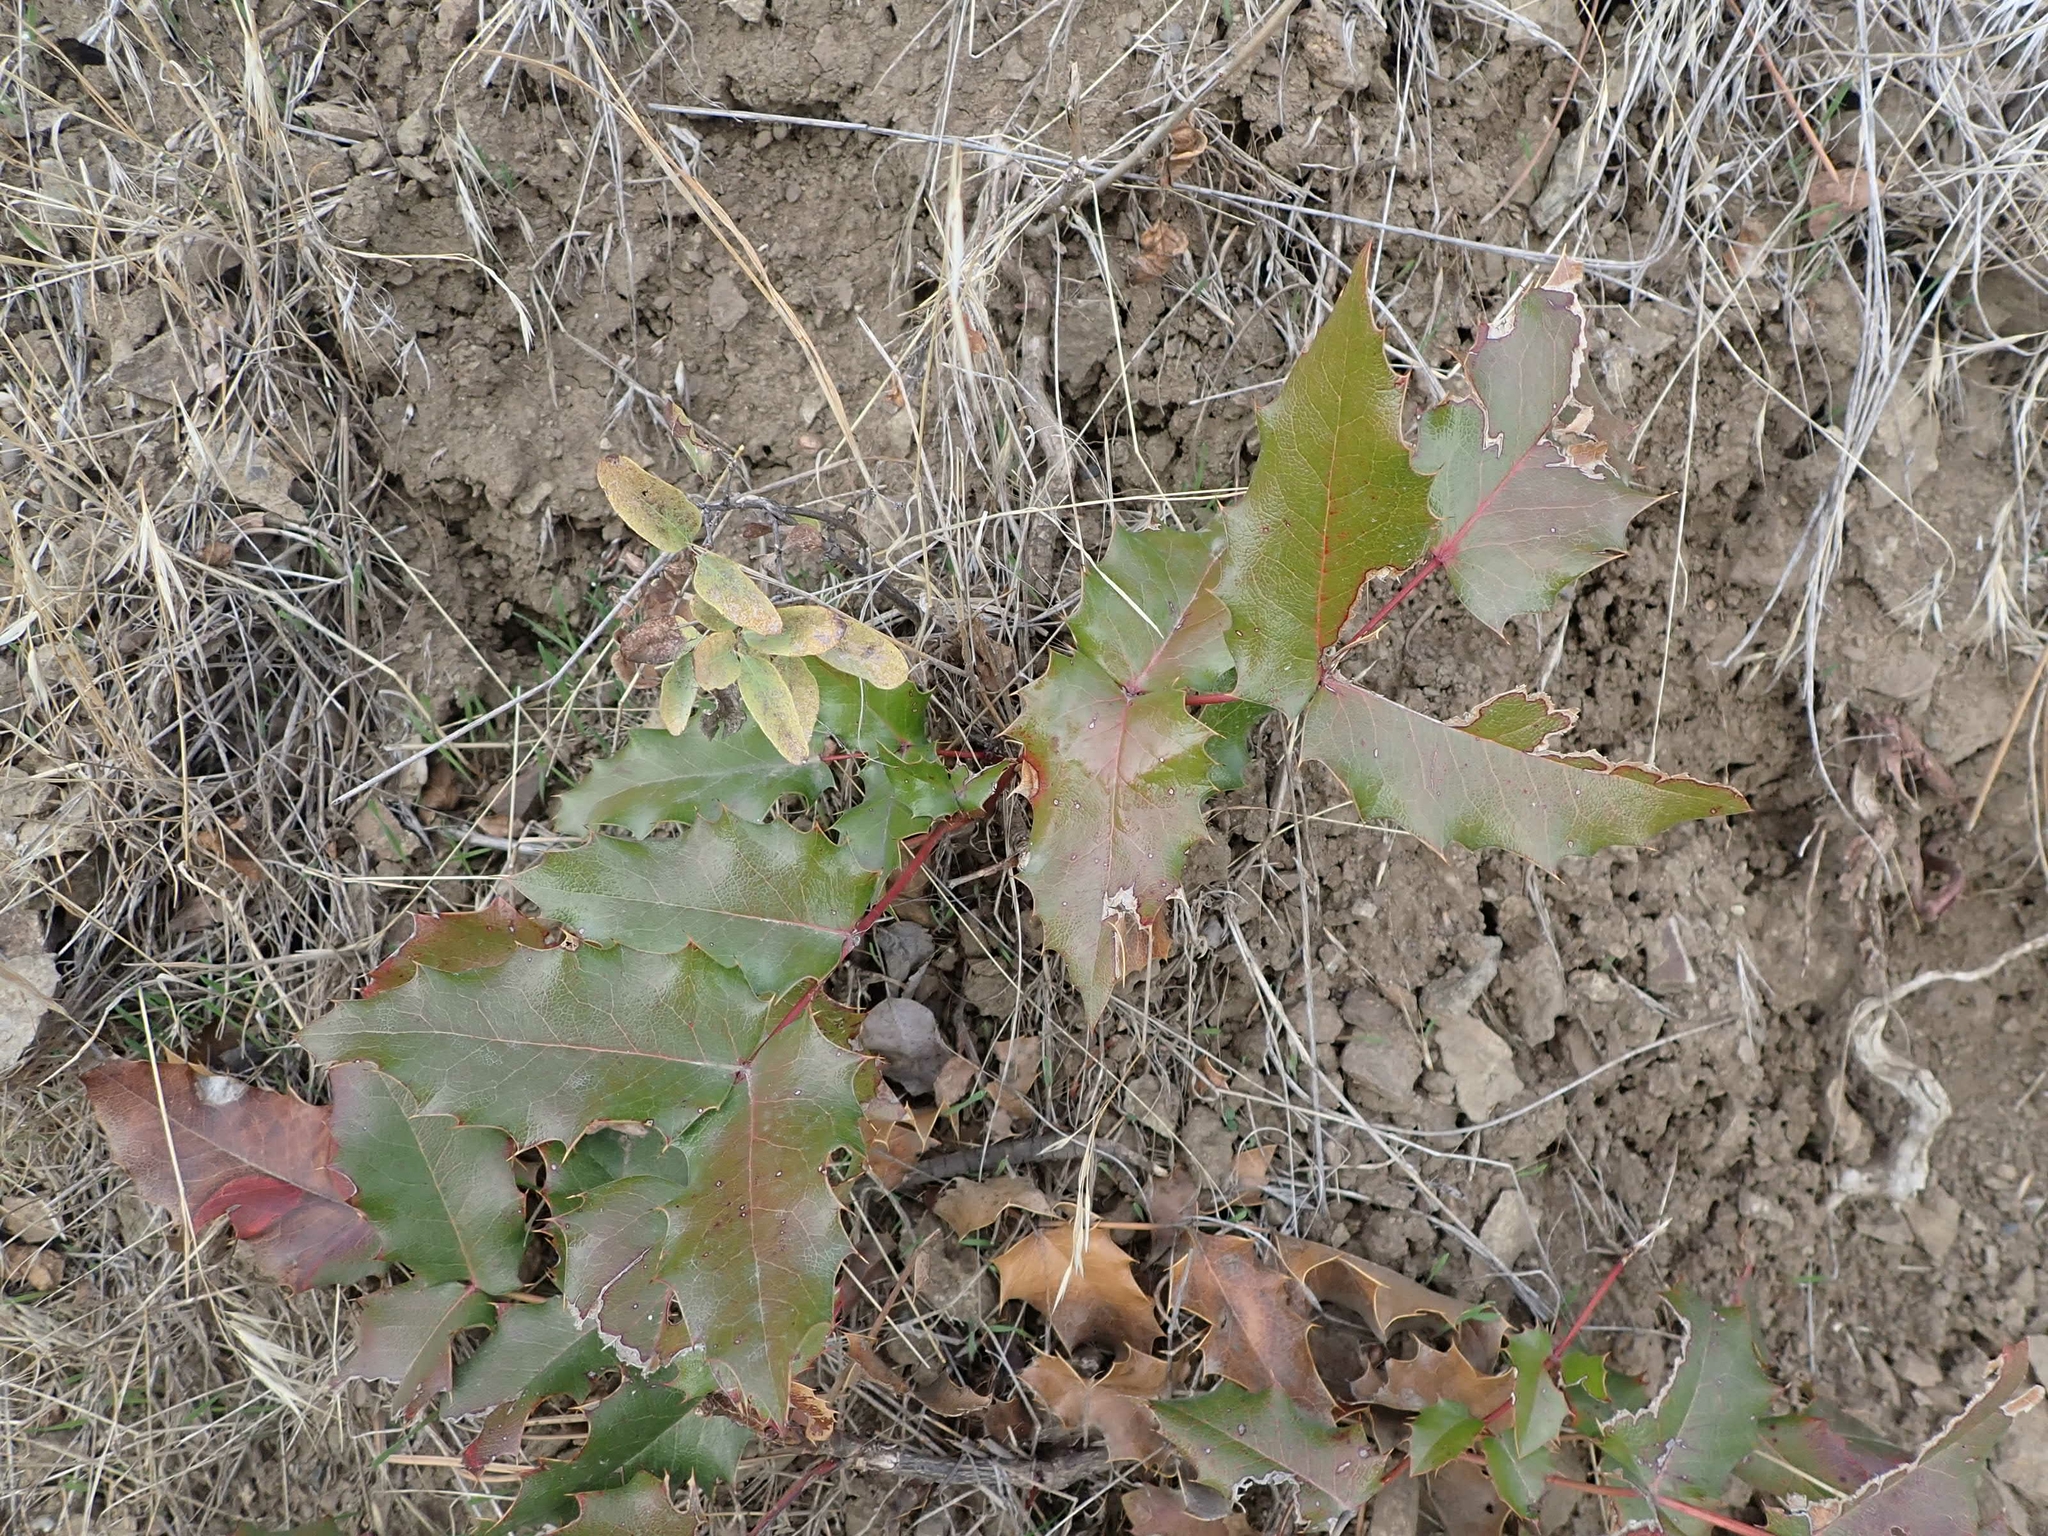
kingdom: Plantae
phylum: Tracheophyta
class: Magnoliopsida
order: Ranunculales
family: Berberidaceae
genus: Mahonia
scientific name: Mahonia aquifolium
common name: Oregon-grape
